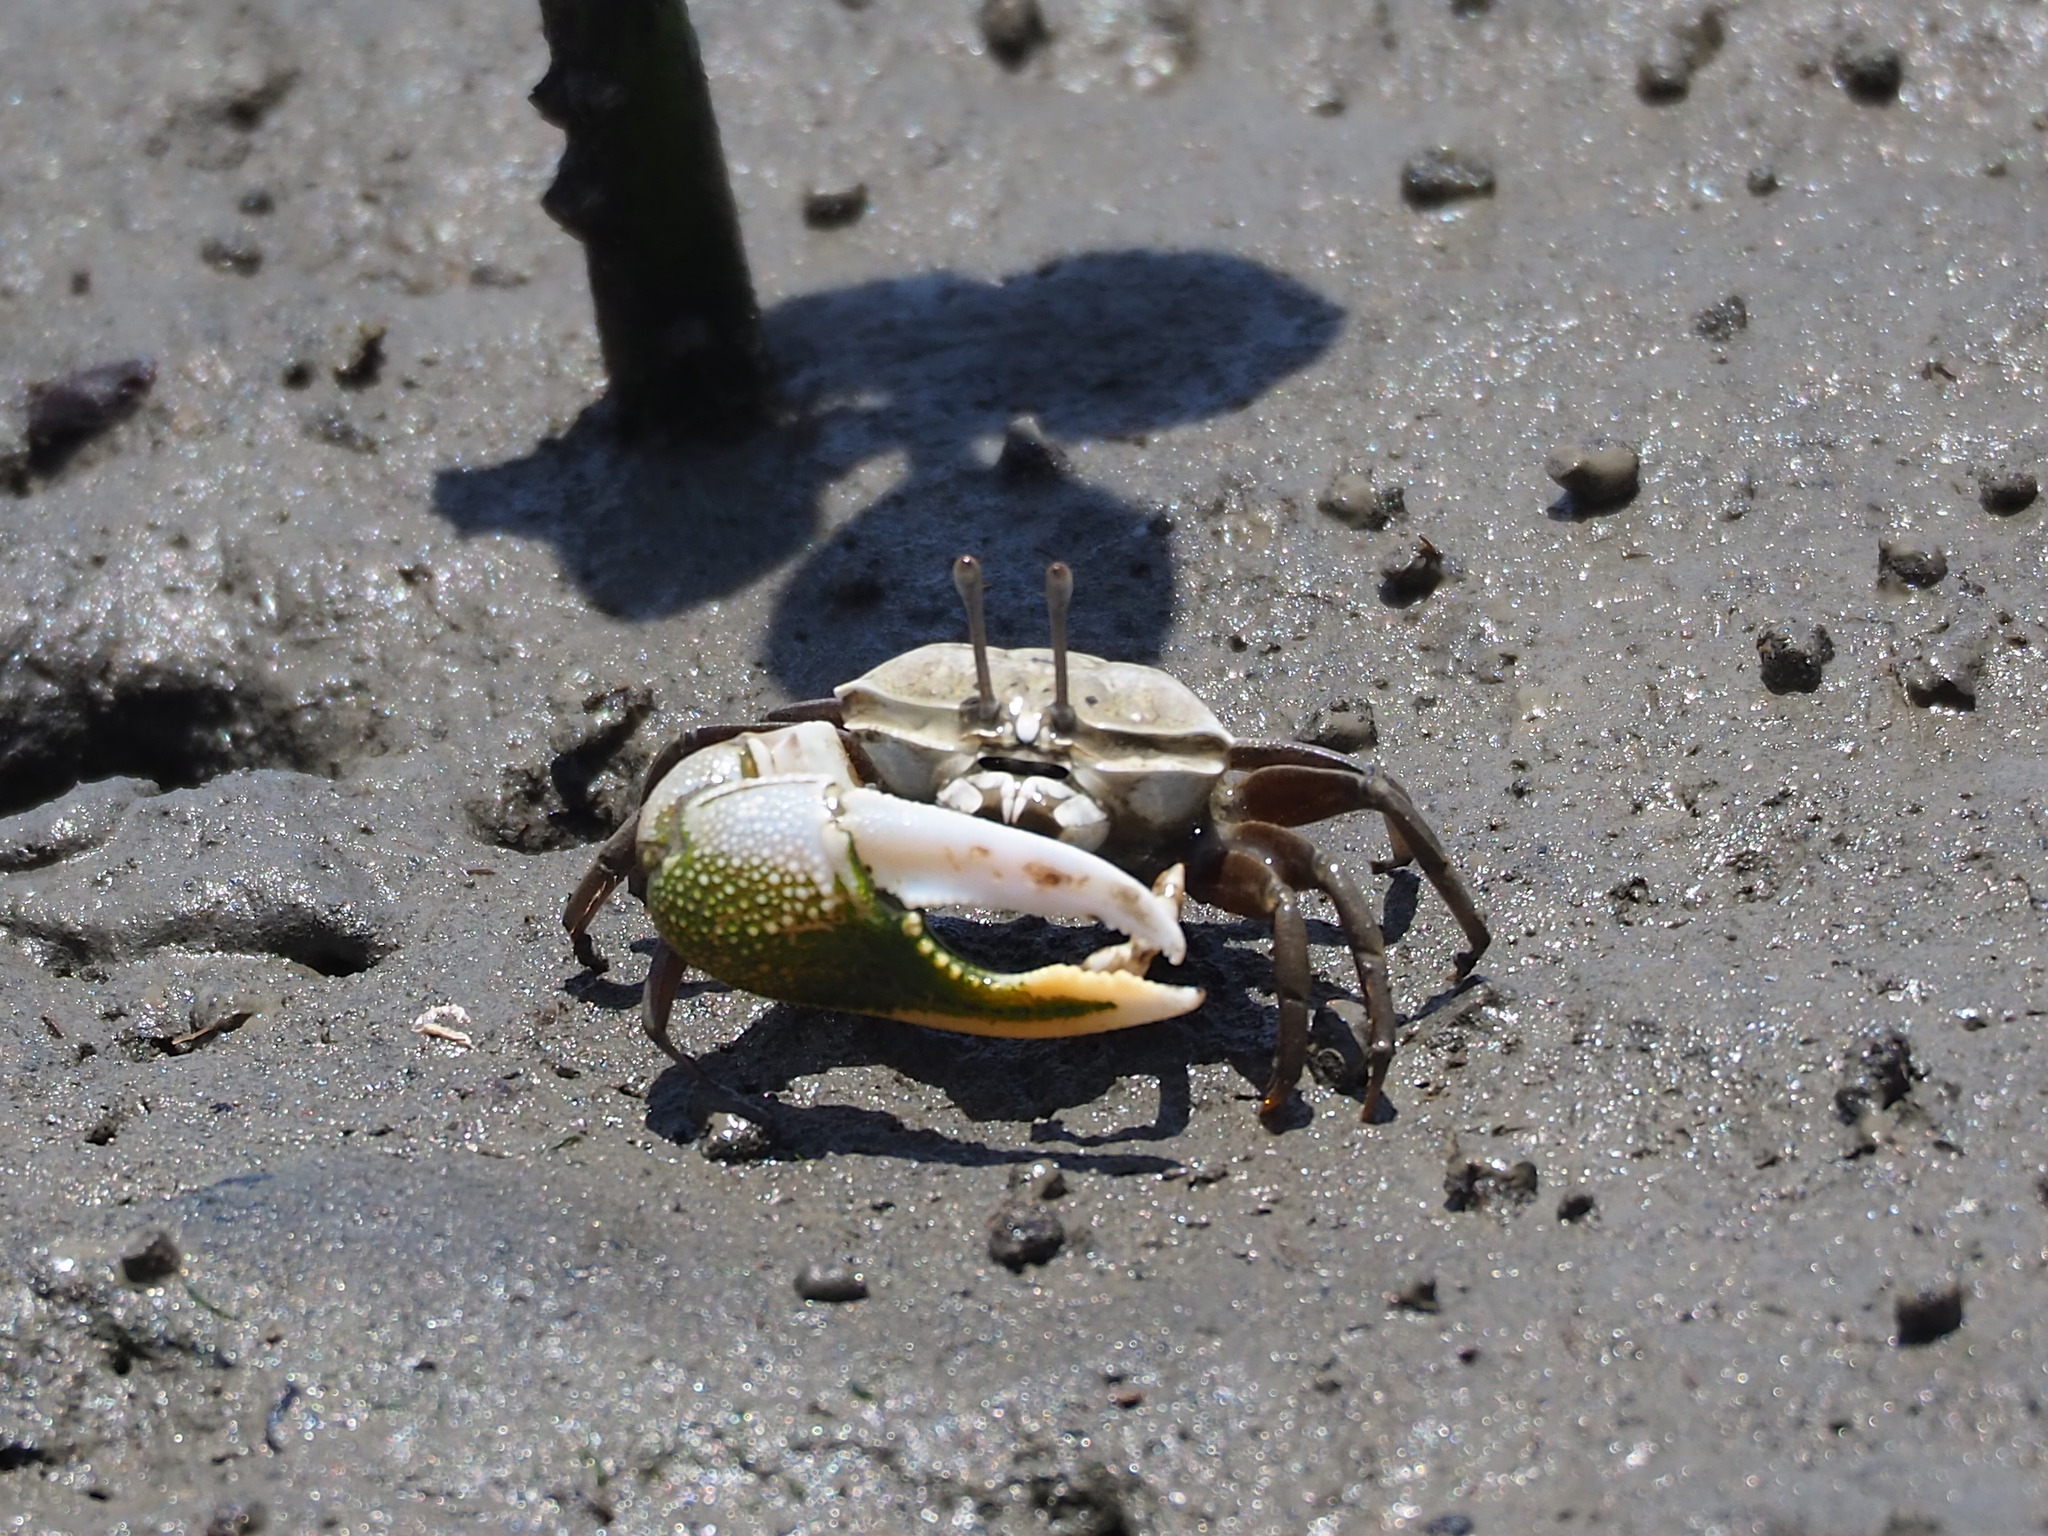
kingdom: Animalia
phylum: Arthropoda
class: Malacostraca
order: Decapoda
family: Ocypodidae
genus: Gelasimus
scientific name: Gelasimus borealis
